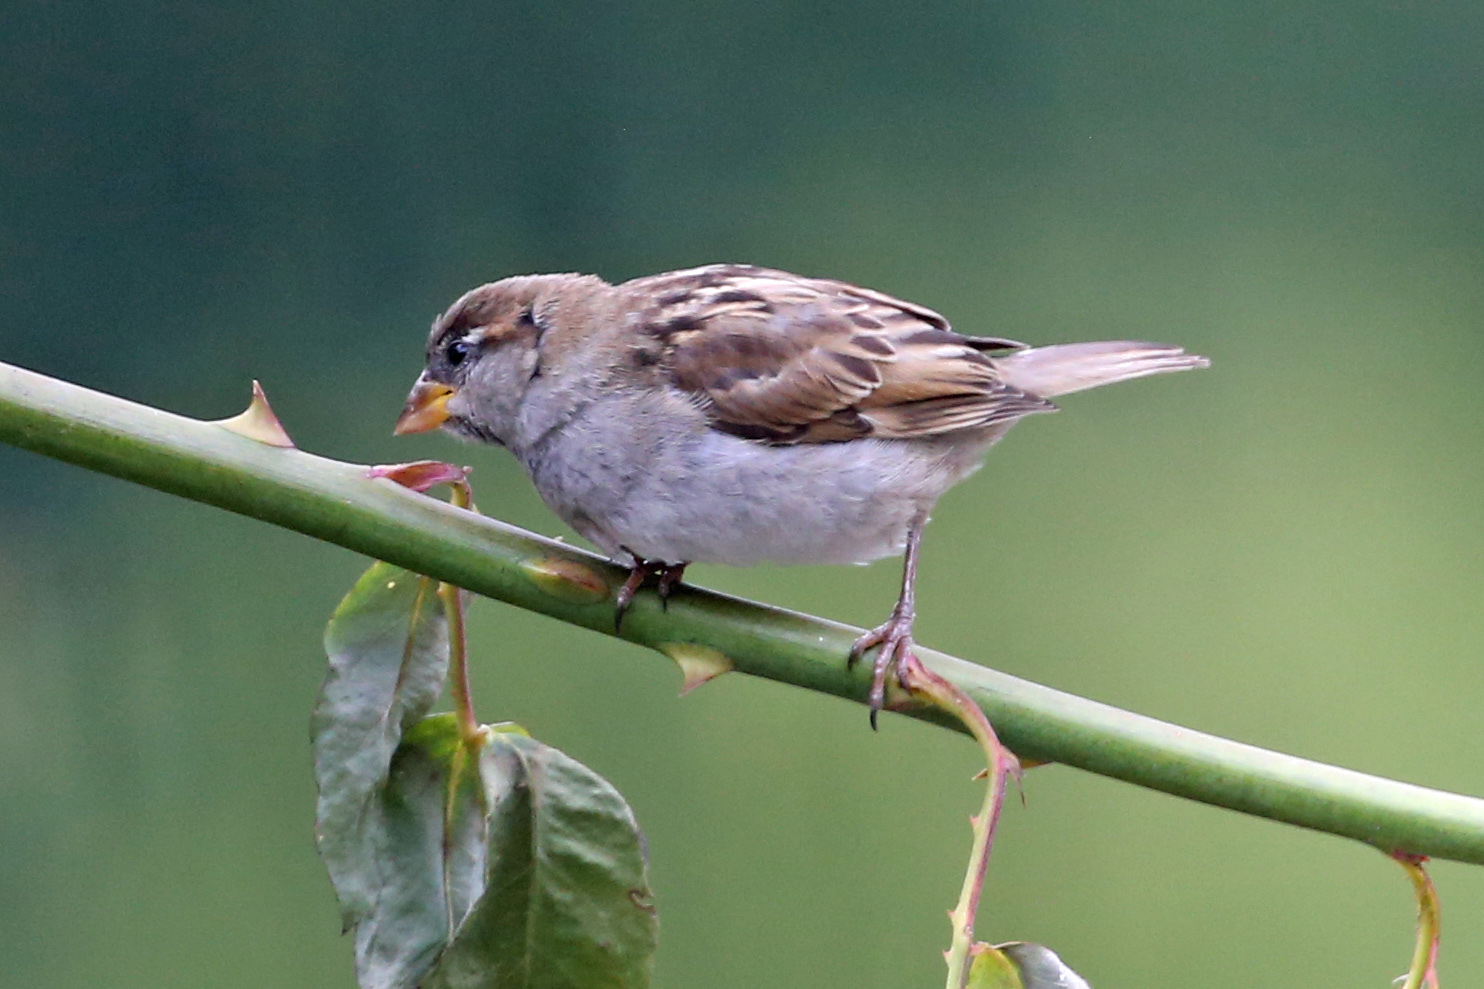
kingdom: Animalia
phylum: Chordata
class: Aves
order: Passeriformes
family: Passeridae
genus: Passer
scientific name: Passer domesticus
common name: House sparrow
